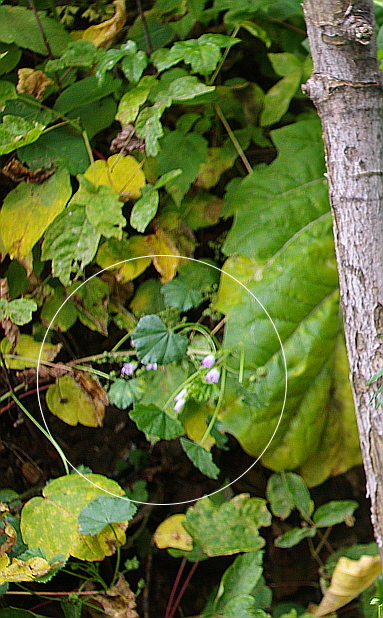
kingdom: Plantae
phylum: Tracheophyta
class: Magnoliopsida
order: Malvales
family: Malvaceae
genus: Malva
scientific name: Malva neglecta
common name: Common mallow
